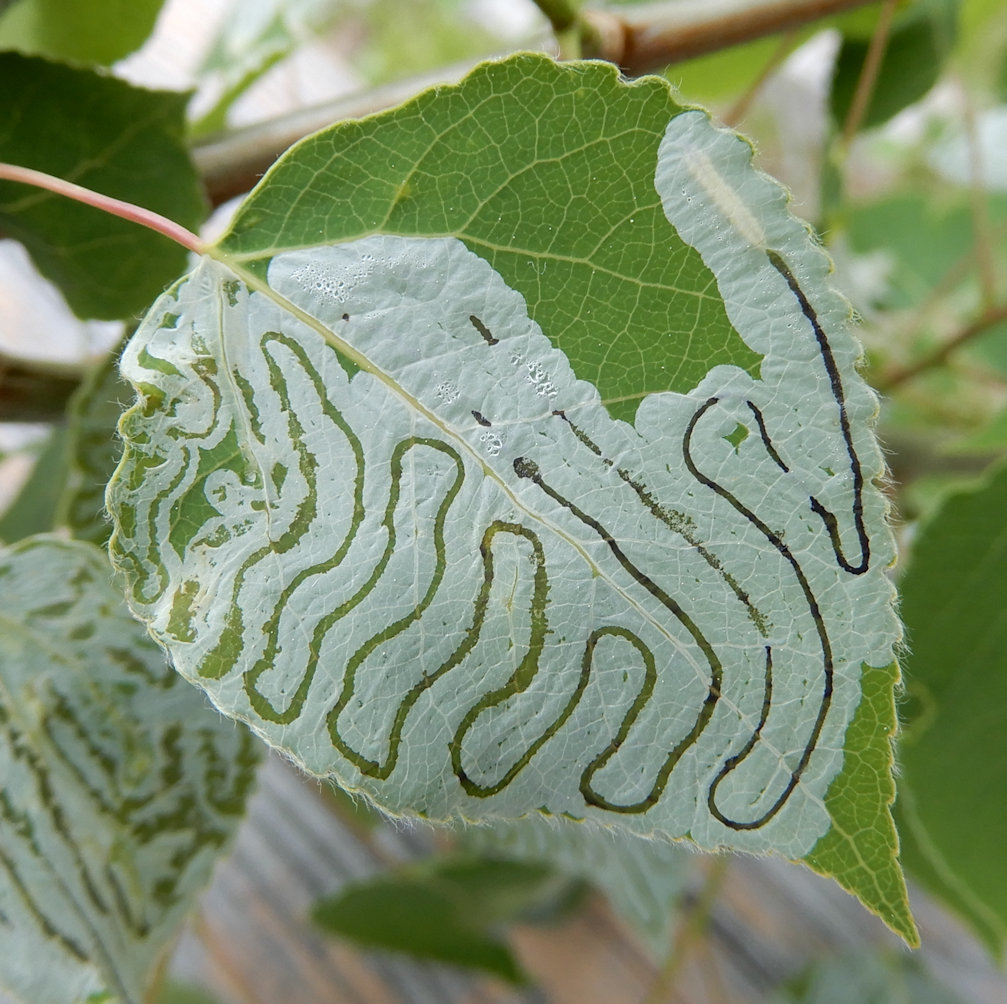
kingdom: Animalia
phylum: Arthropoda
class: Insecta
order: Lepidoptera
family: Gracillariidae
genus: Phyllocnistis
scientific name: Phyllocnistis populiella
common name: Aspen serpentine leafminer moth
